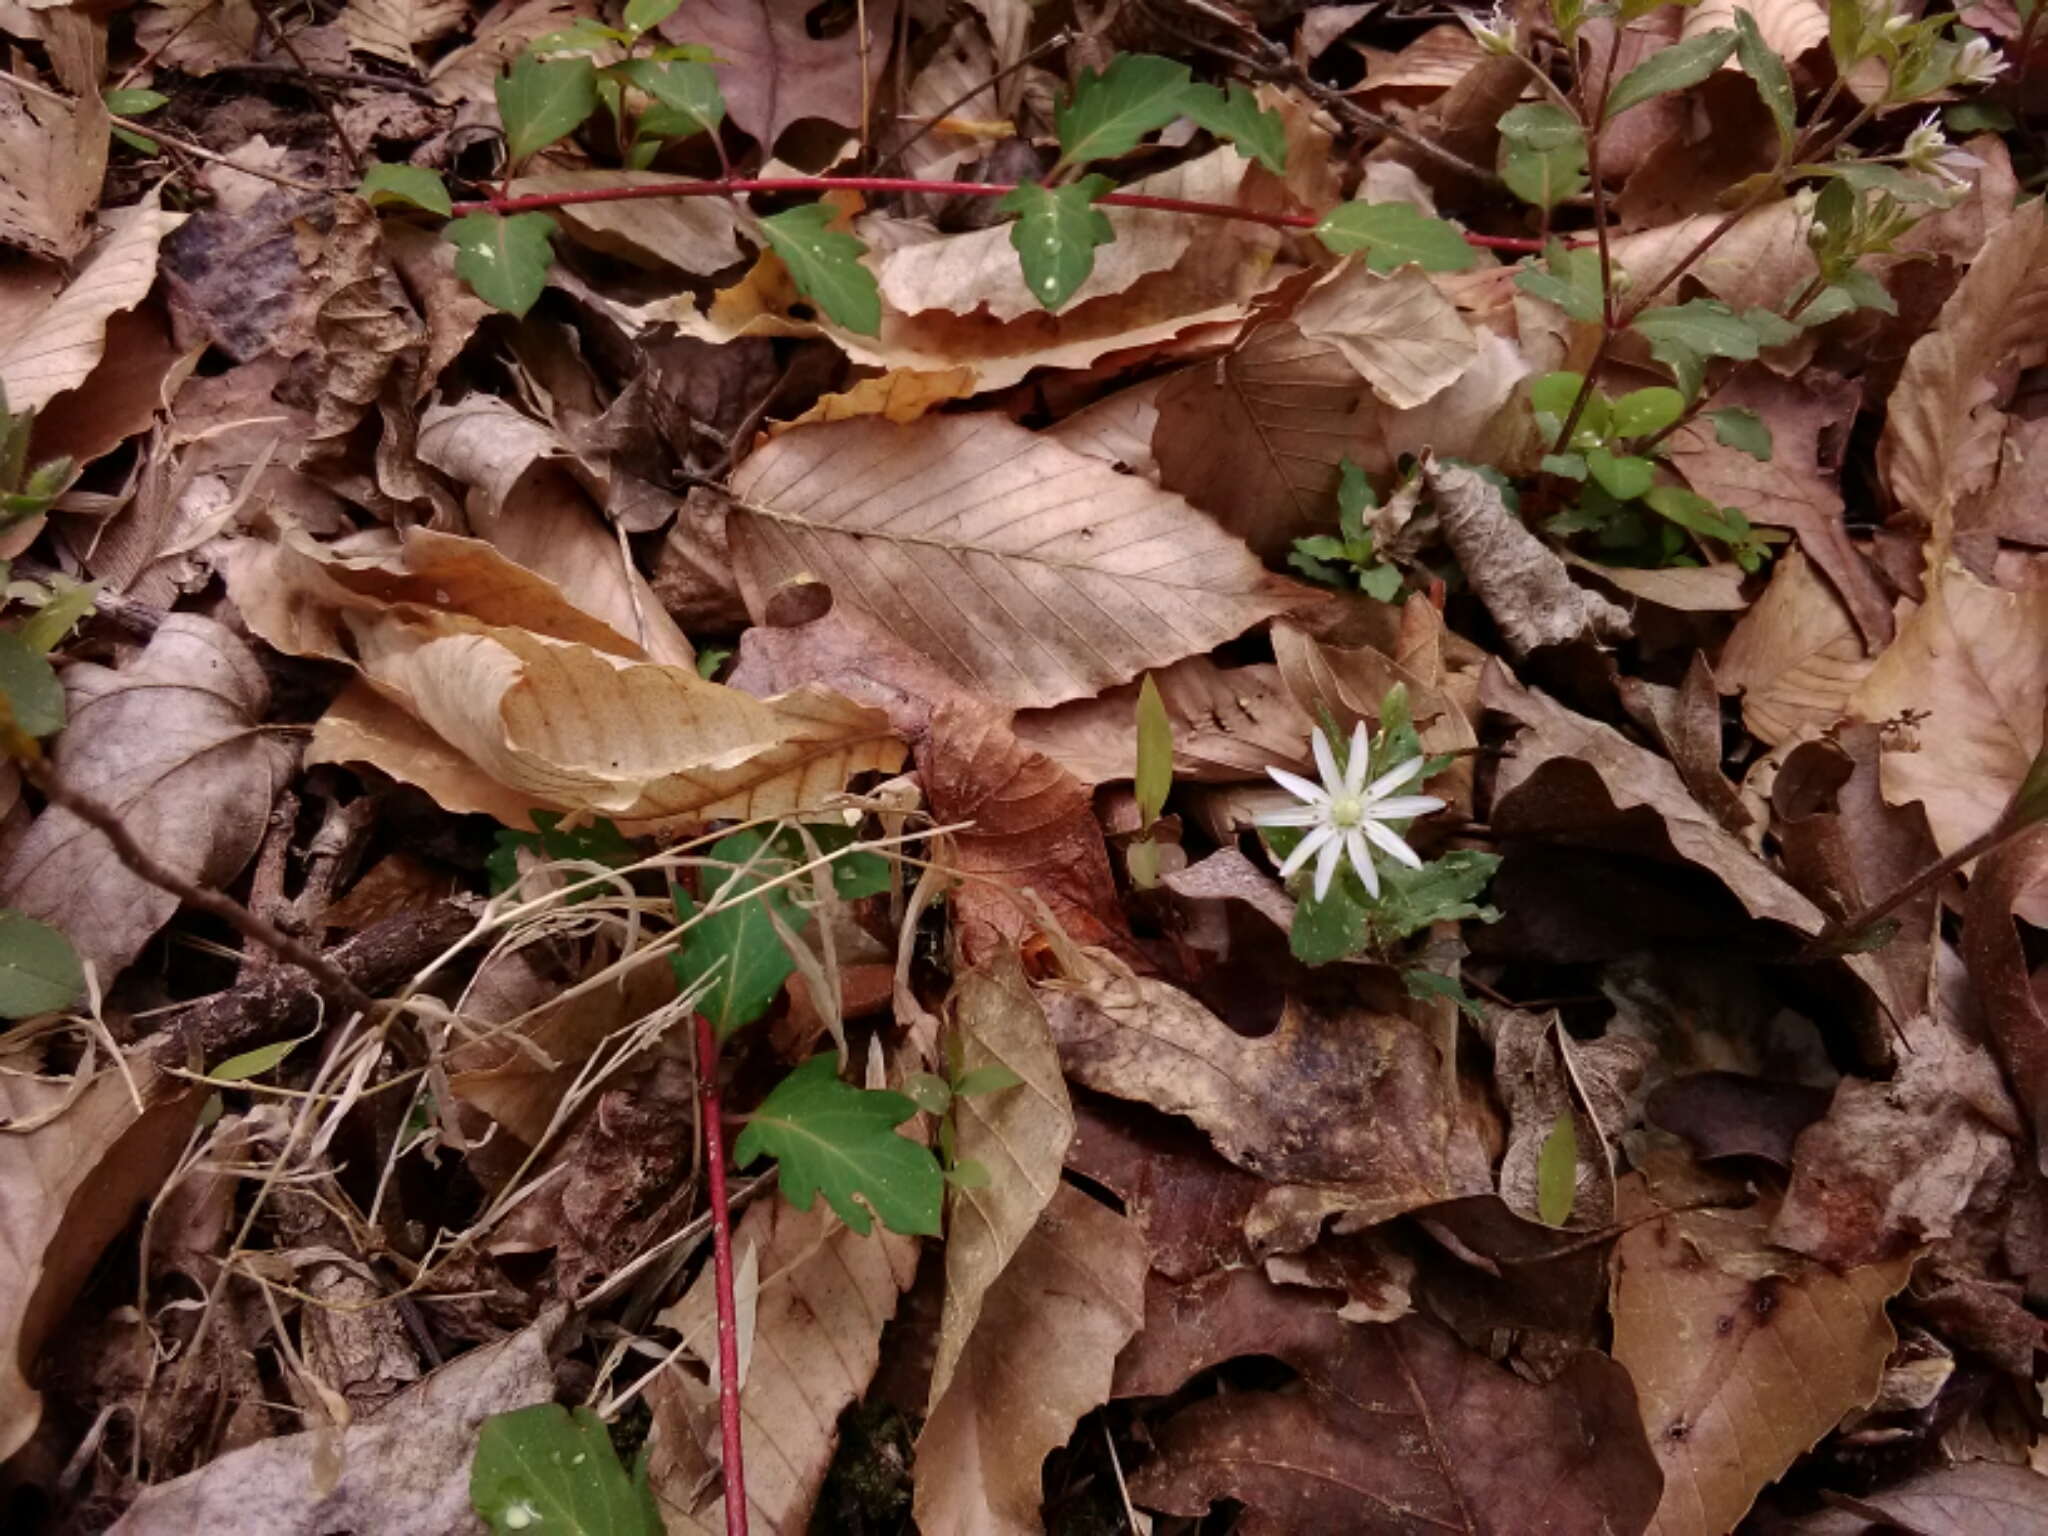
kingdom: Plantae
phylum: Tracheophyta
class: Magnoliopsida
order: Caryophyllales
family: Caryophyllaceae
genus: Stellaria
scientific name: Stellaria pubera
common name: Star chickweed
